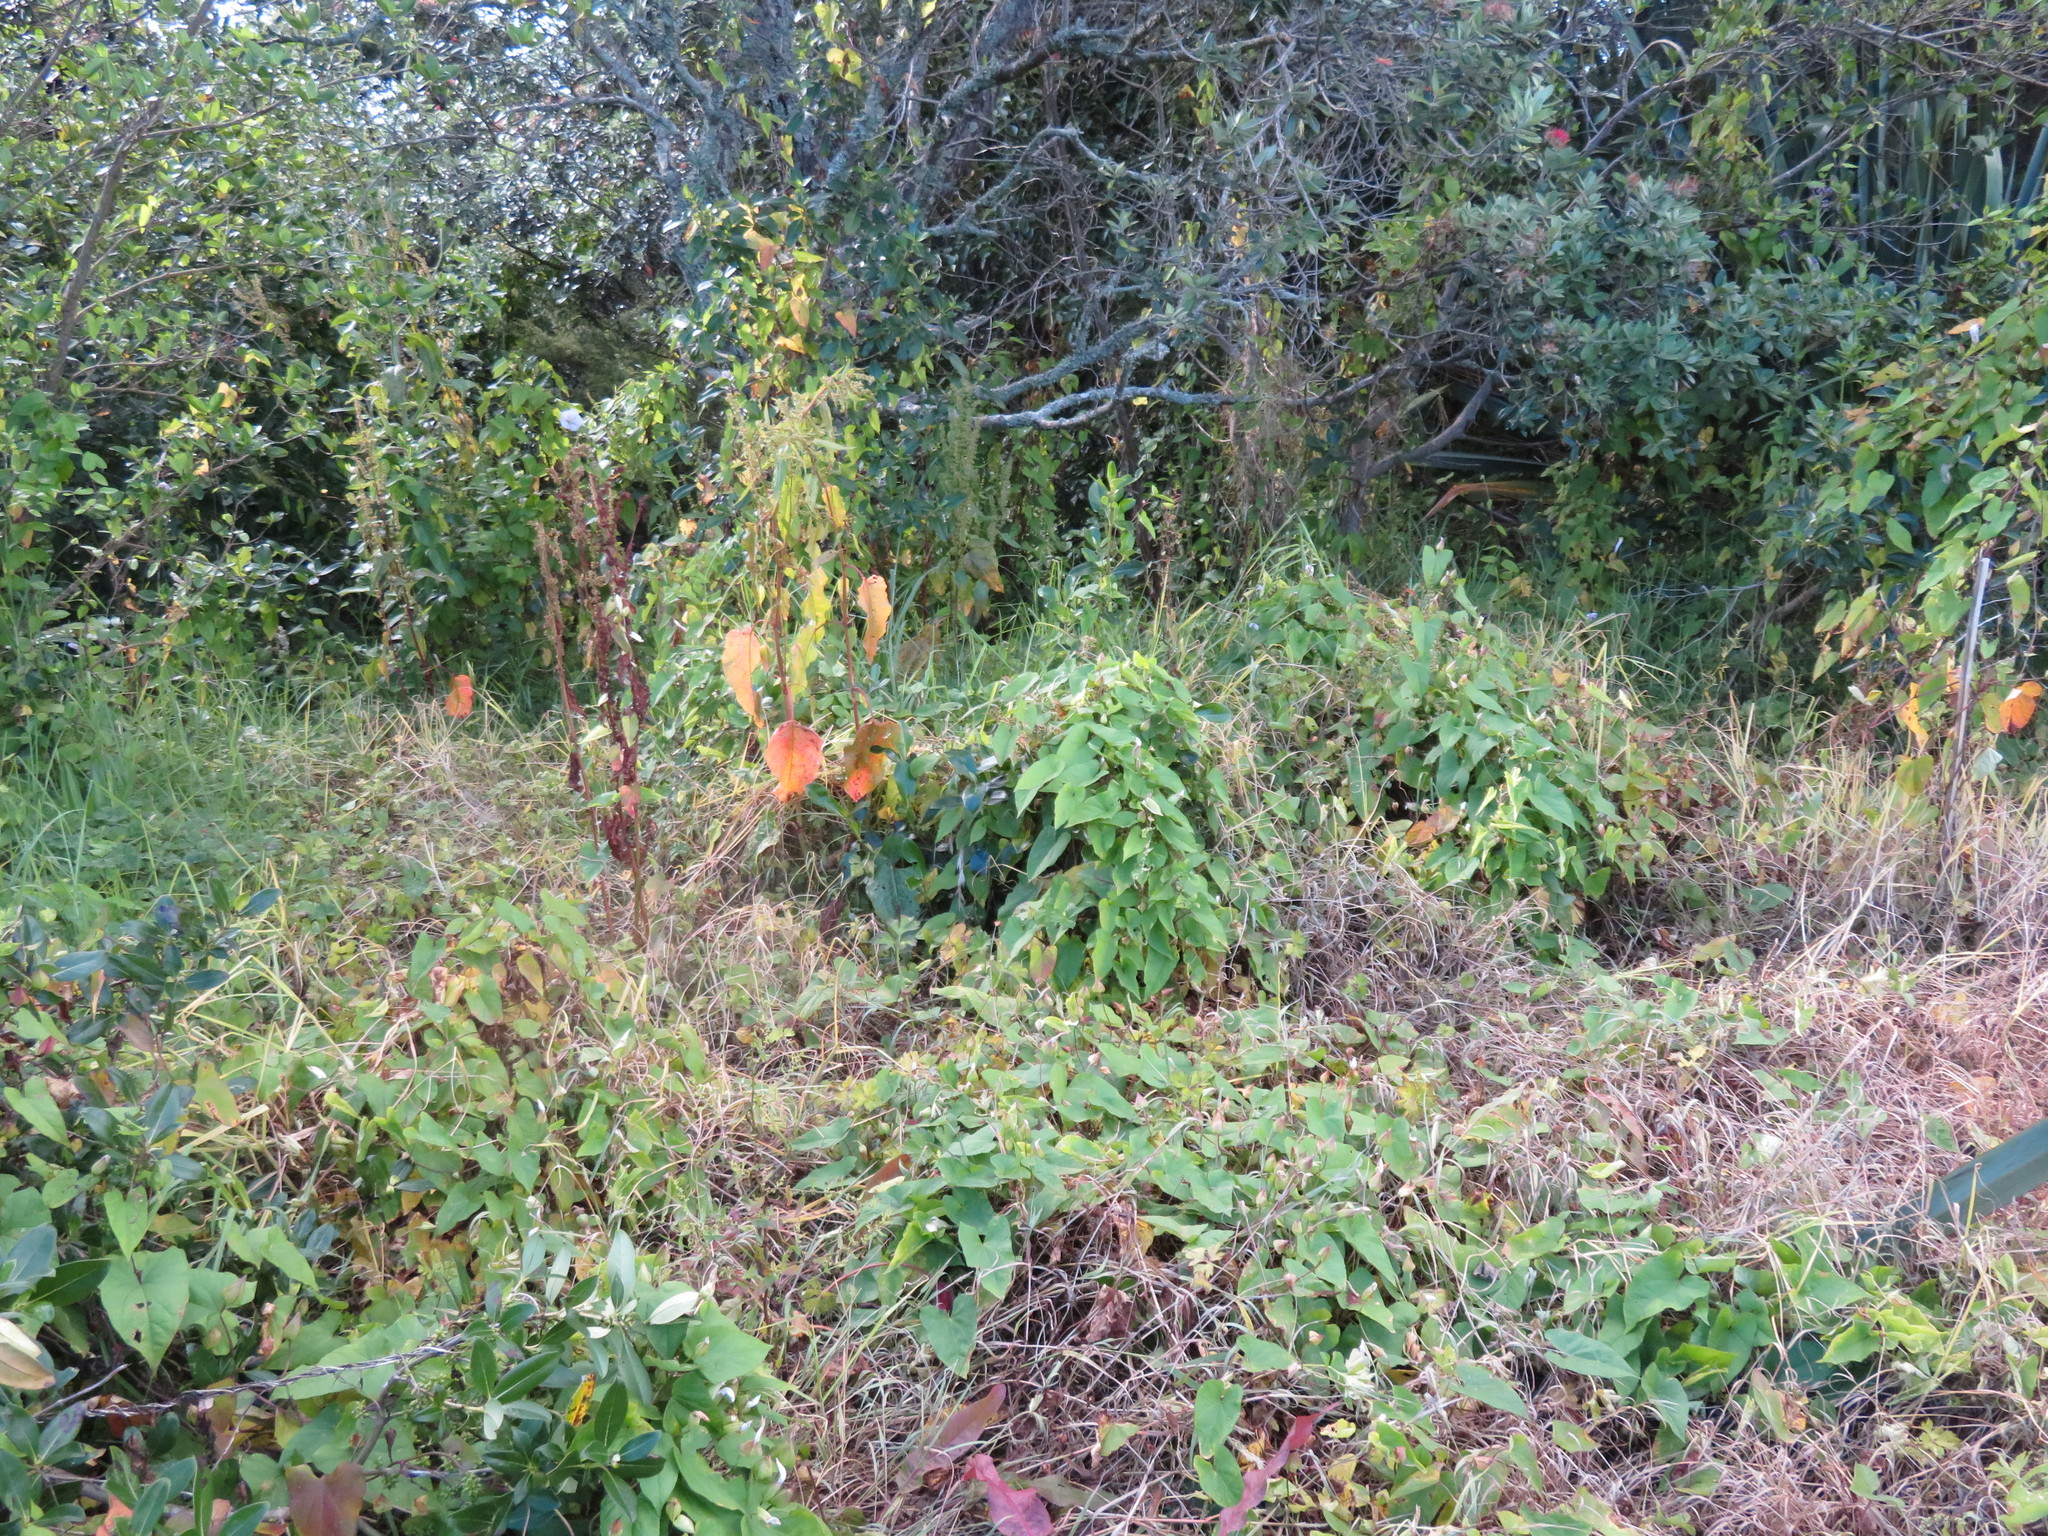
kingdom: Plantae
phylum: Tracheophyta
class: Magnoliopsida
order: Solanales
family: Convolvulaceae
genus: Calystegia
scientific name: Calystegia silvatica
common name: Large bindweed
